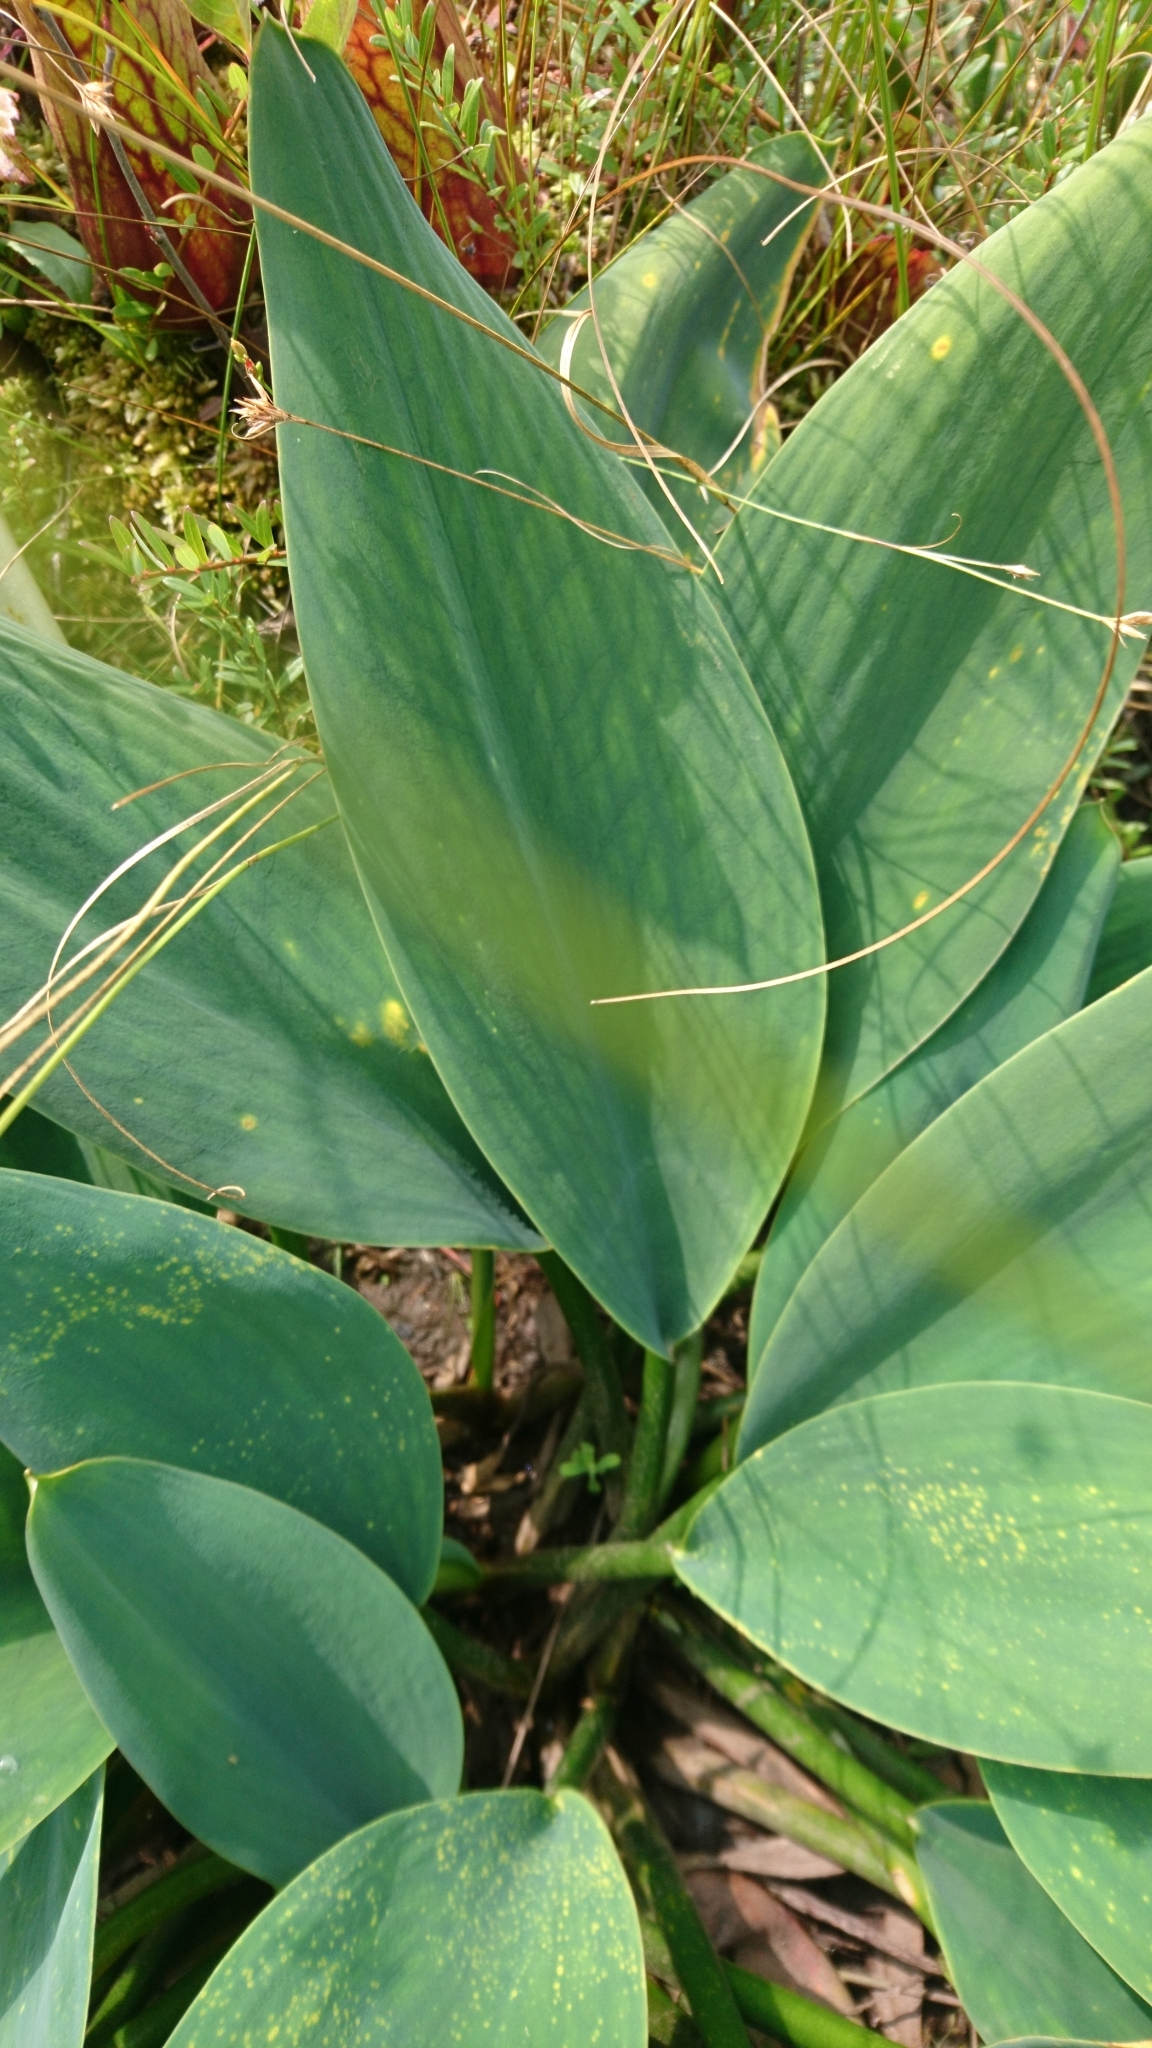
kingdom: Plantae
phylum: Tracheophyta
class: Liliopsida
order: Alismatales
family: Araceae
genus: Orontium
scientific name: Orontium aquaticum
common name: Golden-club
